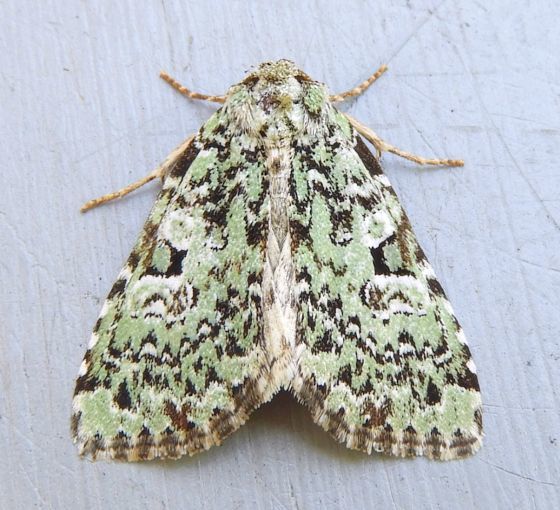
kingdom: Animalia
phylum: Arthropoda
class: Insecta
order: Lepidoptera
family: Noctuidae
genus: Leuconycta
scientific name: Leuconycta diphteroides
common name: Green leuconycta moth
